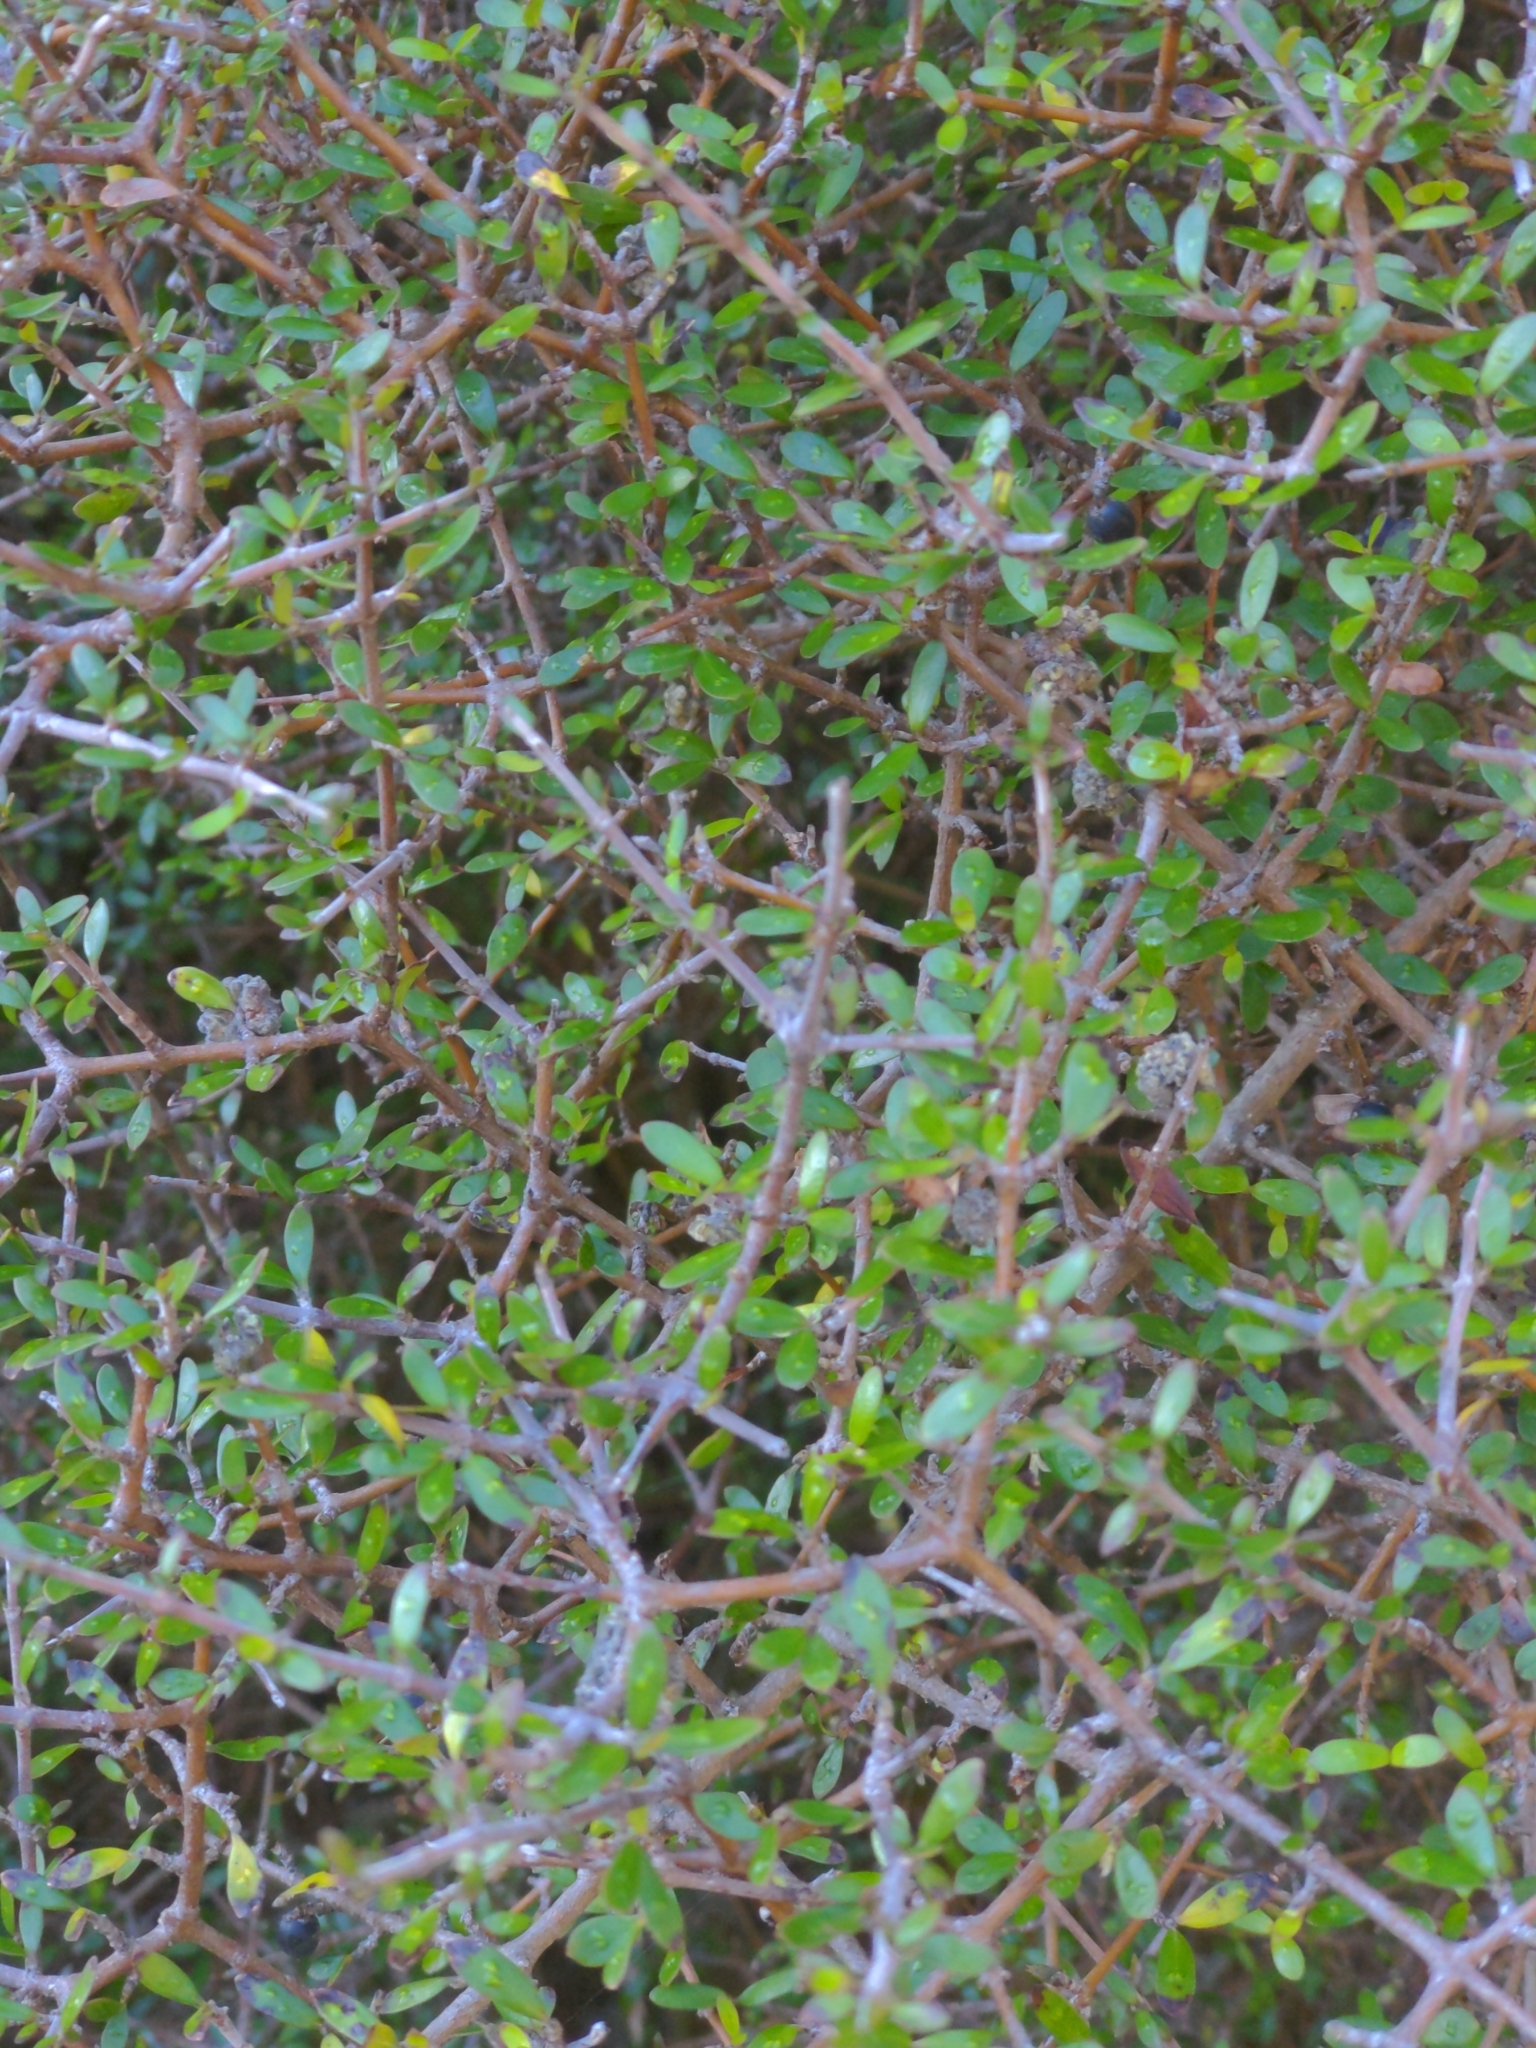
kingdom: Plantae
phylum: Tracheophyta
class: Magnoliopsida
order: Gentianales
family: Rubiaceae
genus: Coprosma
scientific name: Coprosma propinqua
